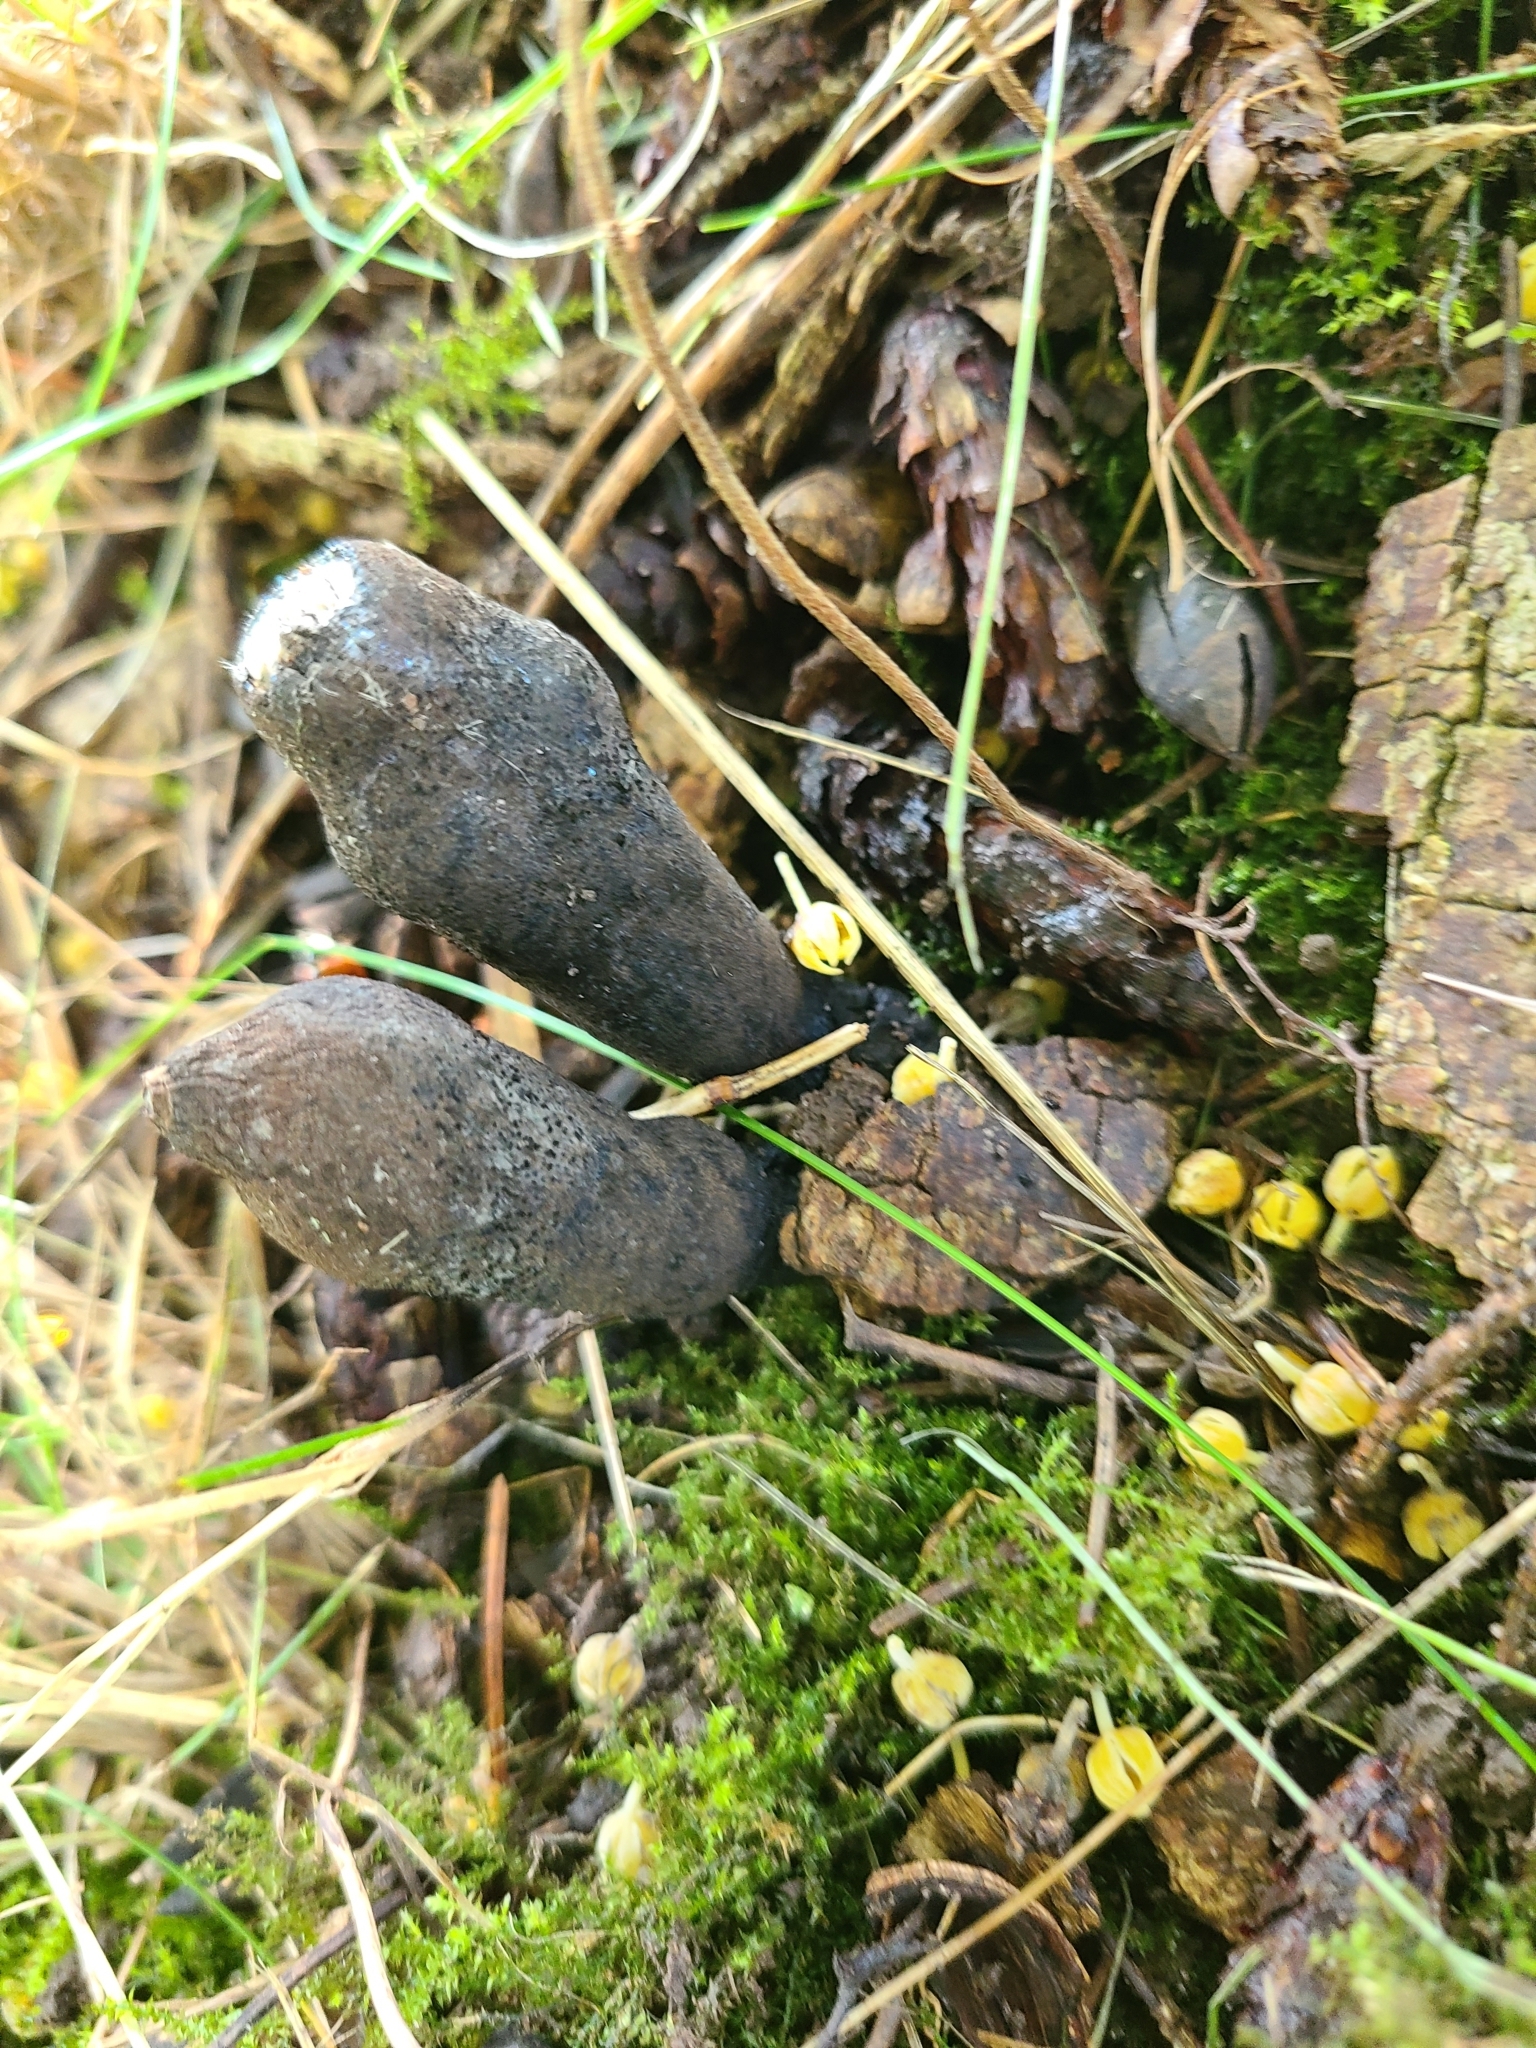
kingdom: Fungi
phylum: Ascomycota
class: Sordariomycetes
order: Xylariales
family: Xylariaceae
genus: Xylaria
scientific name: Xylaria polymorpha
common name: Dead man's fingers
